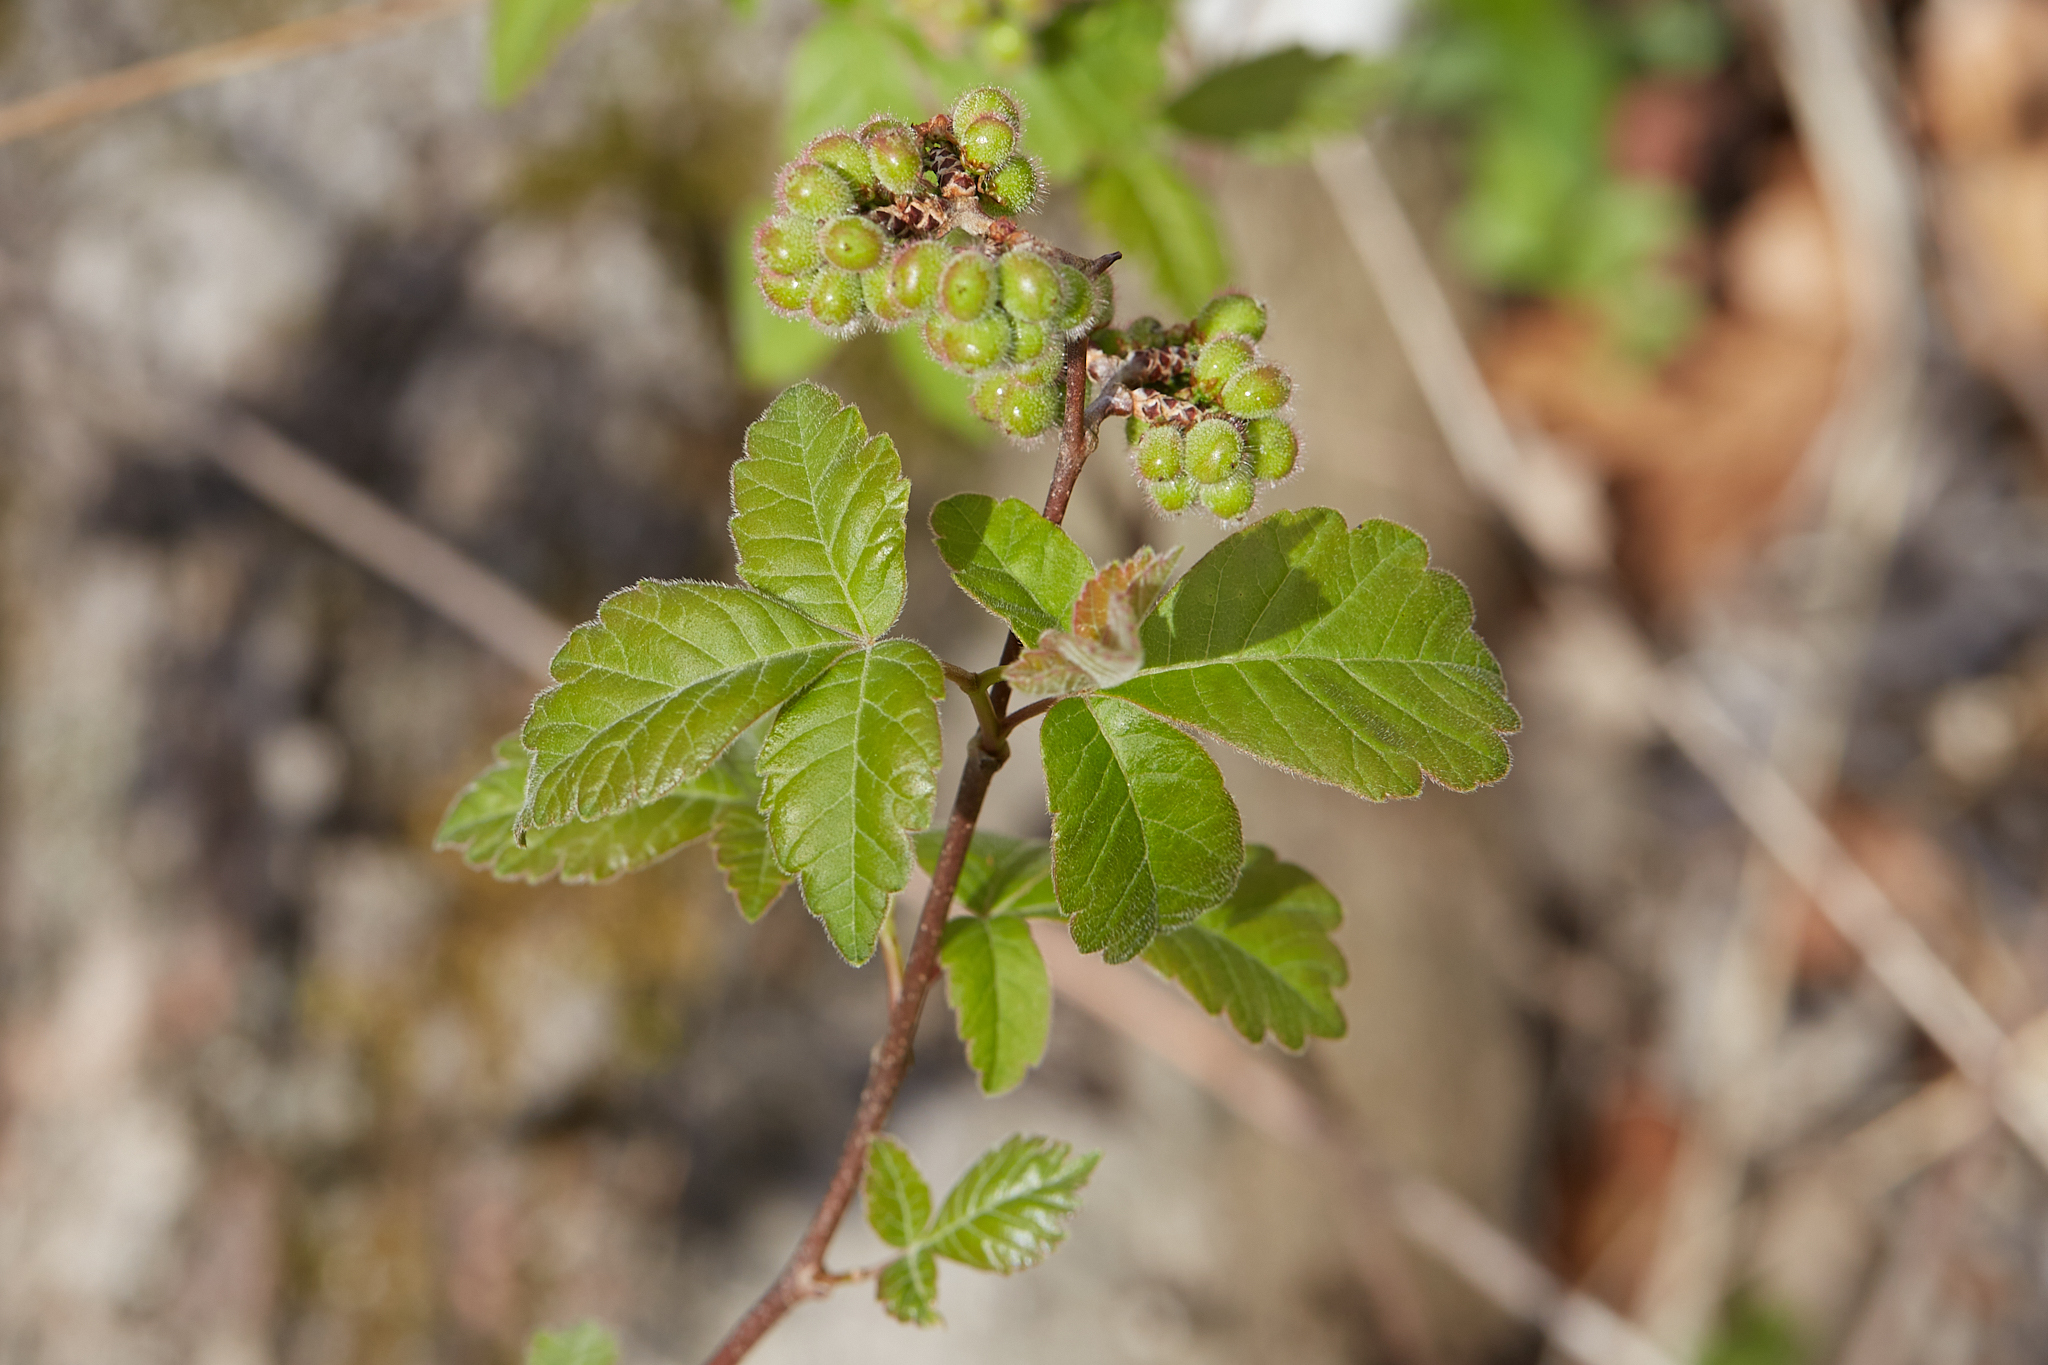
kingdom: Plantae
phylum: Tracheophyta
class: Magnoliopsida
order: Sapindales
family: Anacardiaceae
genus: Rhus
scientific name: Rhus aromatica
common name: Aromatic sumac
